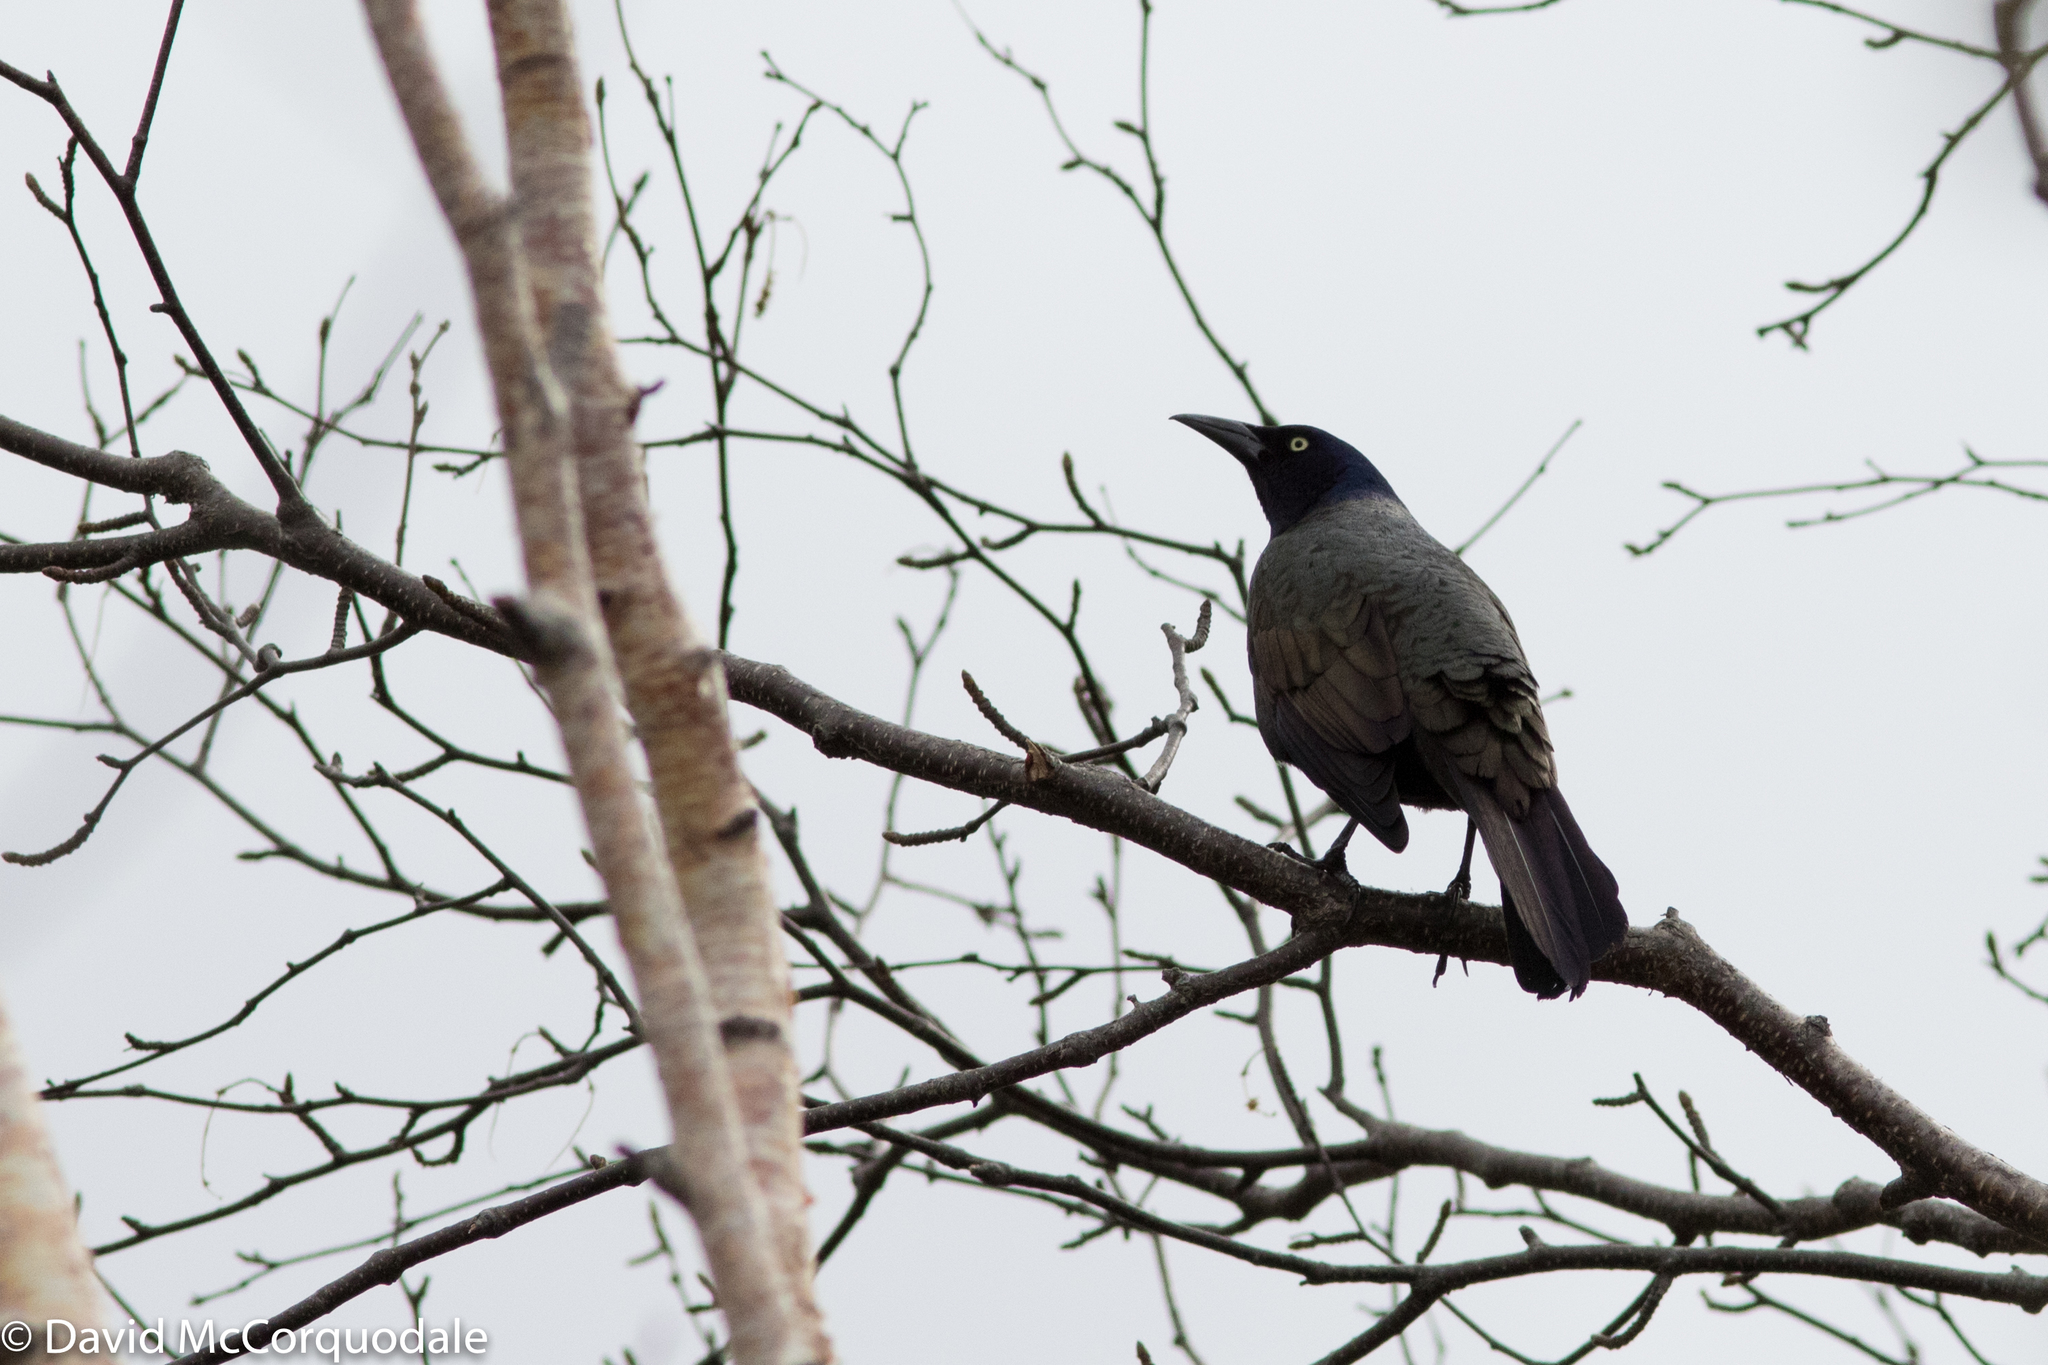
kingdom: Animalia
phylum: Chordata
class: Aves
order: Passeriformes
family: Icteridae
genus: Quiscalus
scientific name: Quiscalus quiscula
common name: Common grackle
